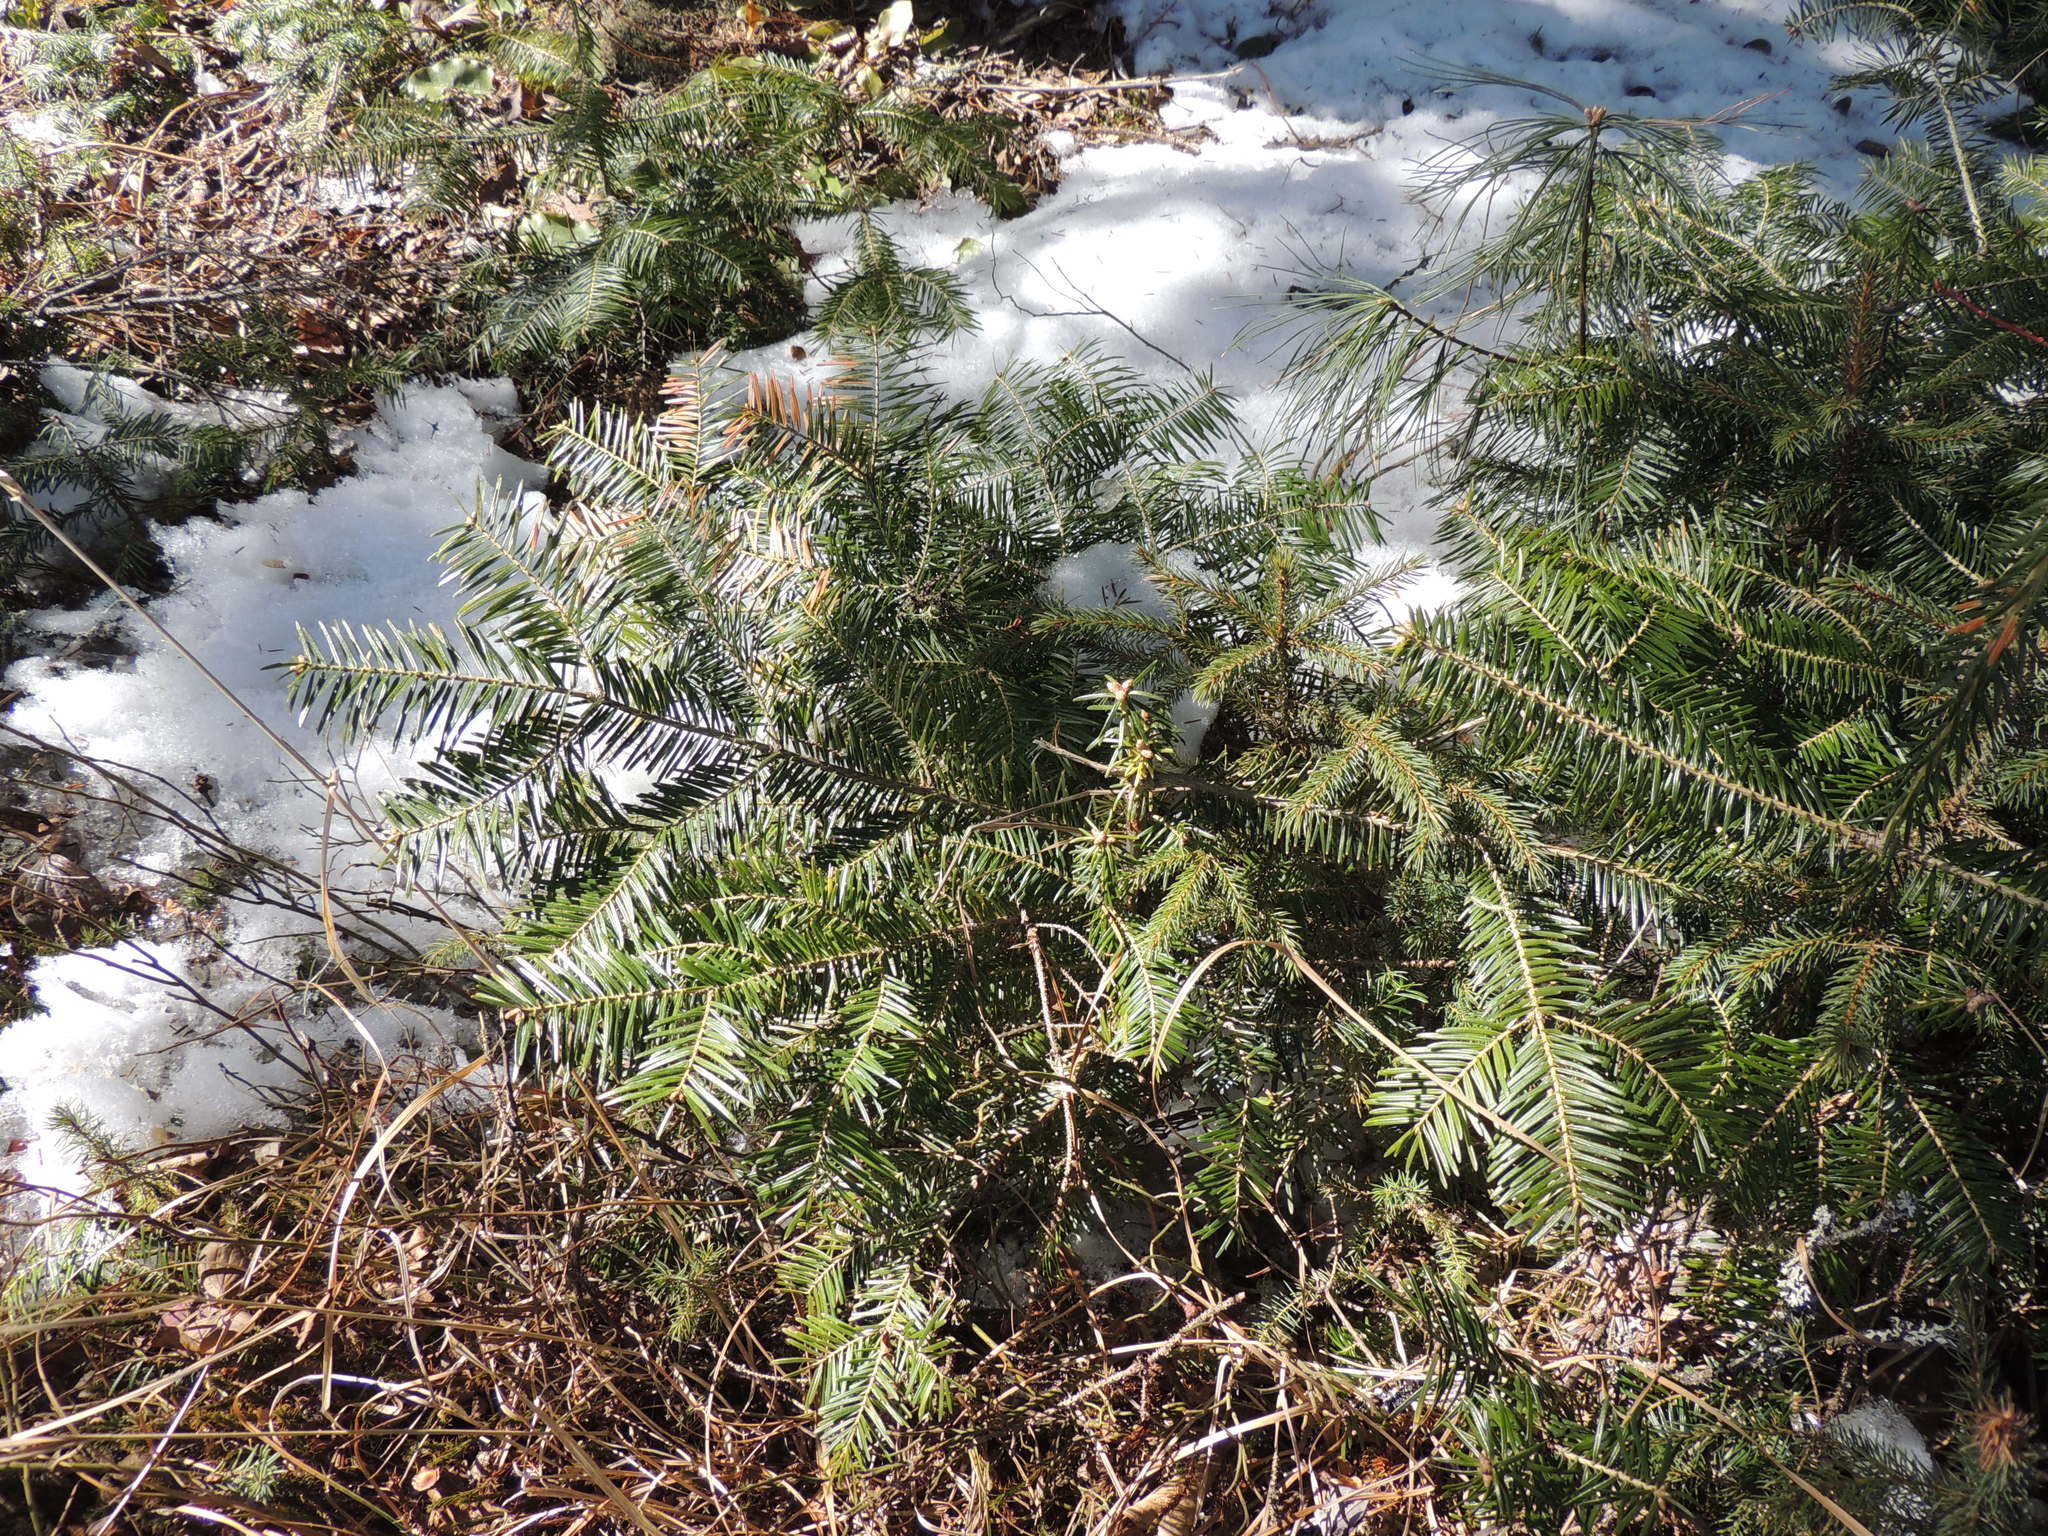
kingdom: Plantae
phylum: Tracheophyta
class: Pinopsida
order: Pinales
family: Pinaceae
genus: Abies
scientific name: Abies balsamea
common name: Balsam fir
